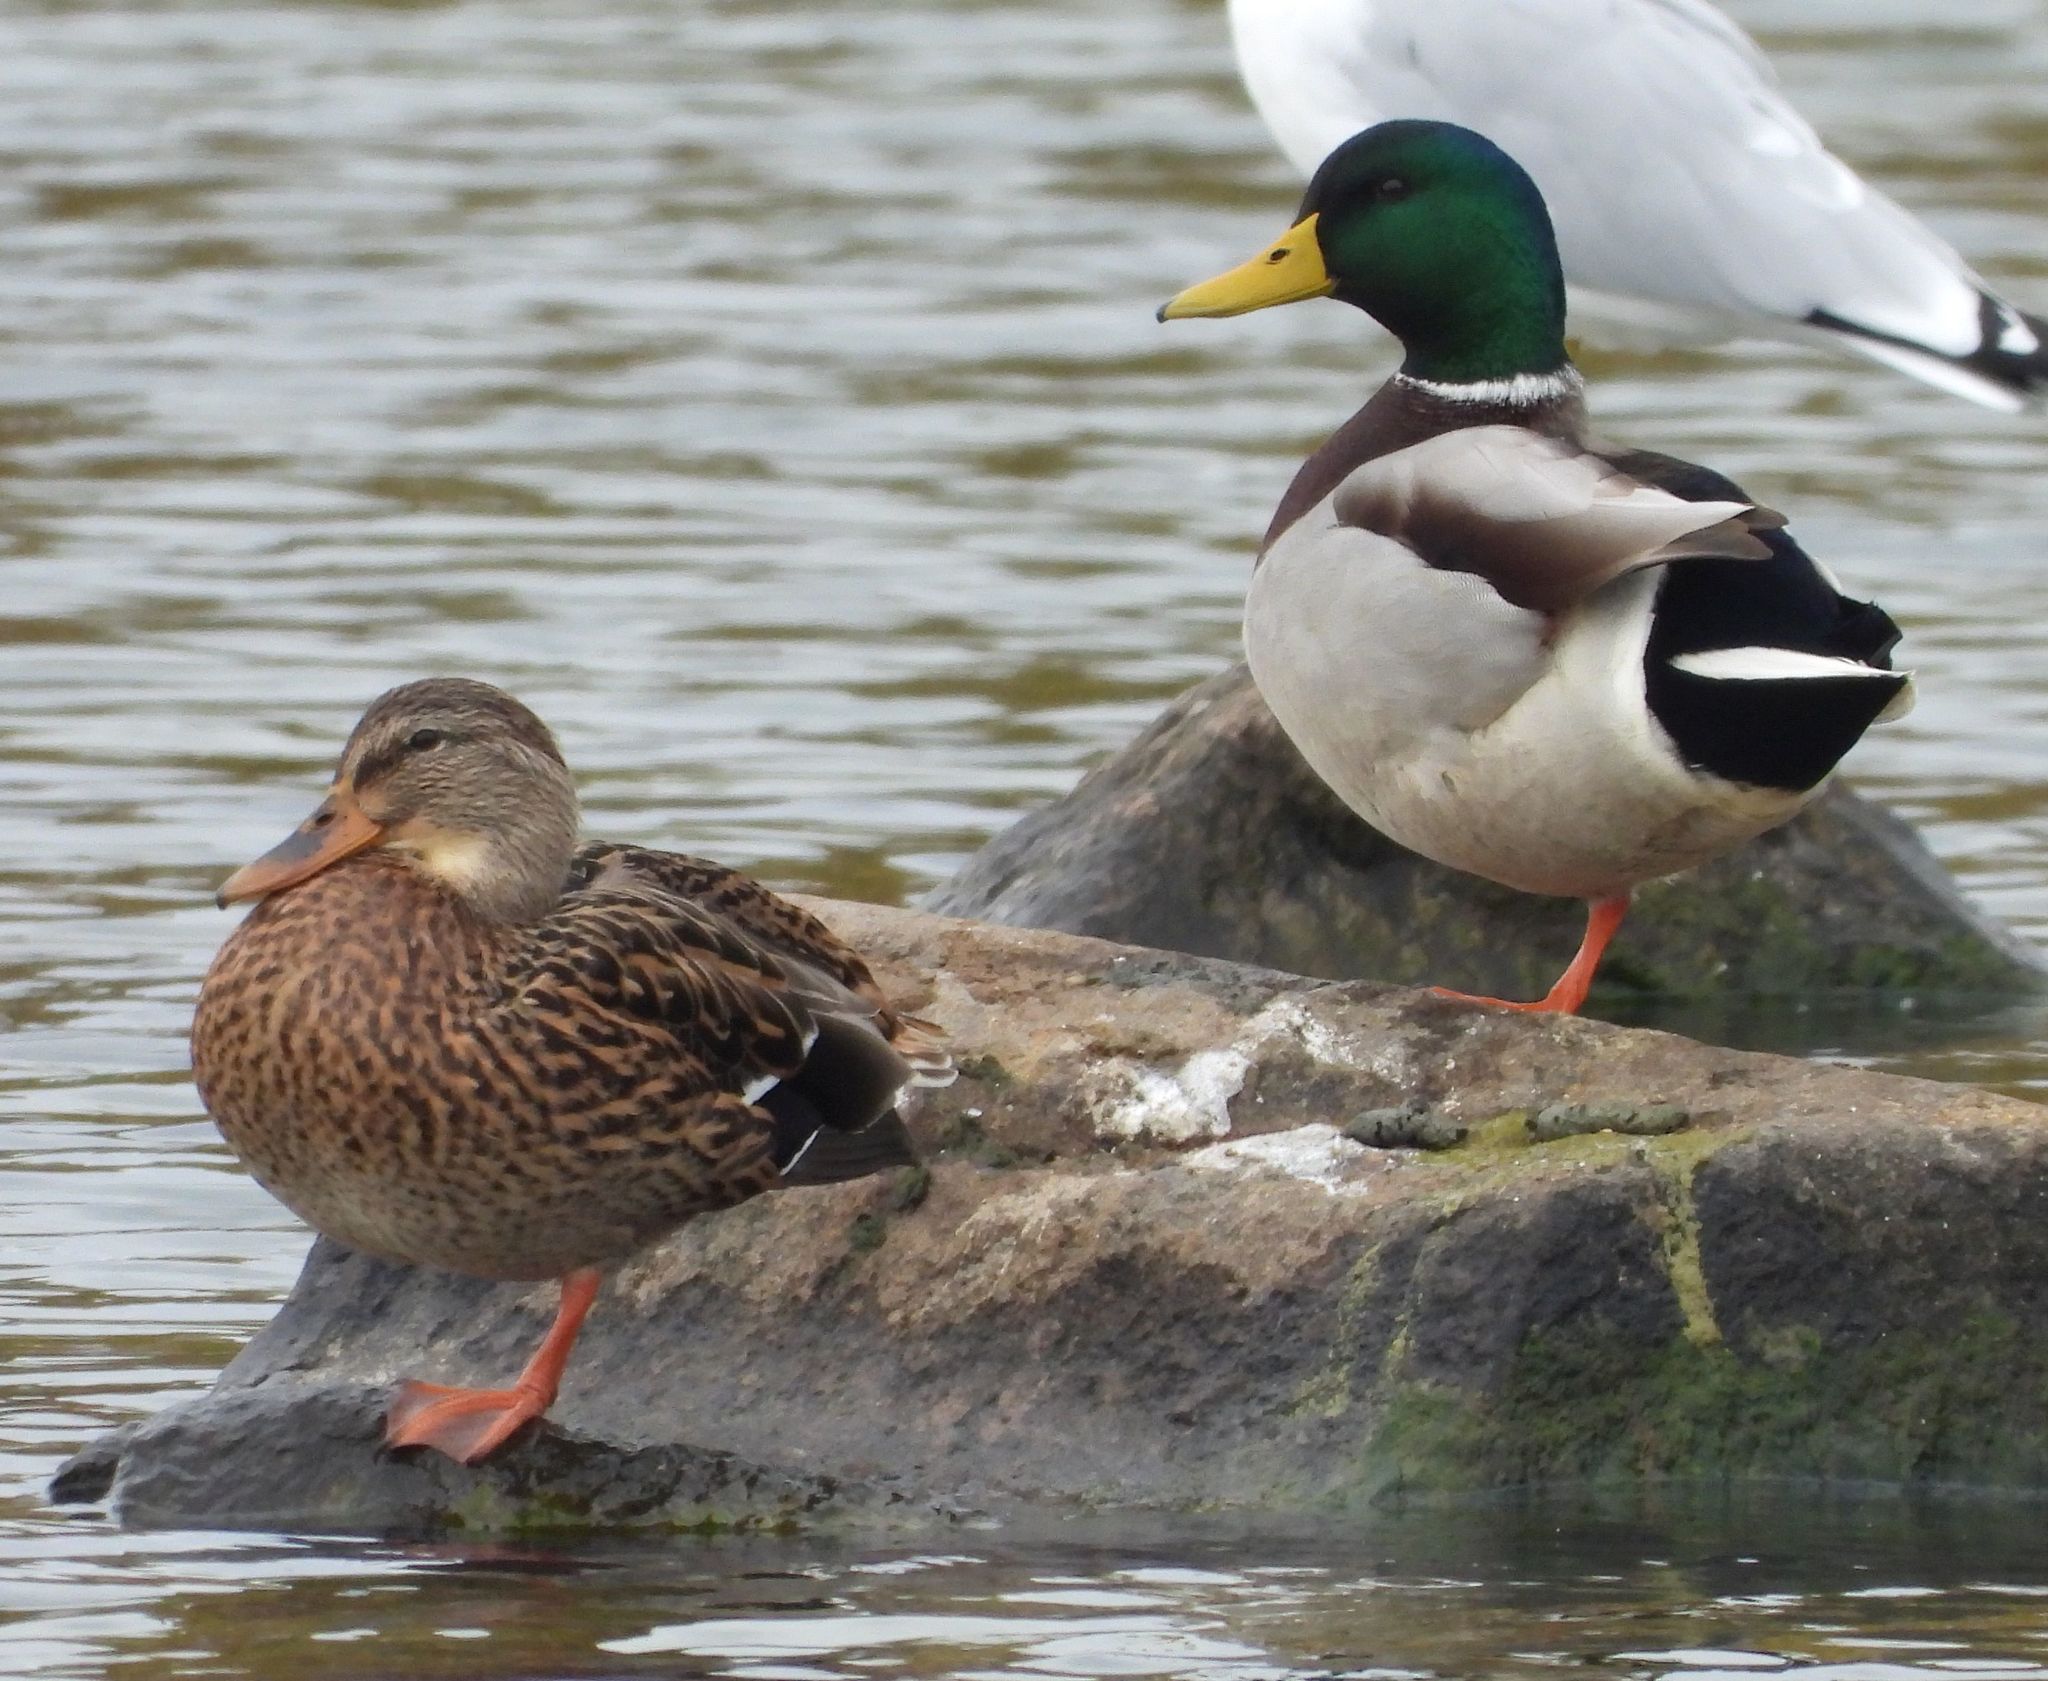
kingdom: Animalia
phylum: Chordata
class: Aves
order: Anseriformes
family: Anatidae
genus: Anas
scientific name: Anas platyrhynchos
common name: Mallard
